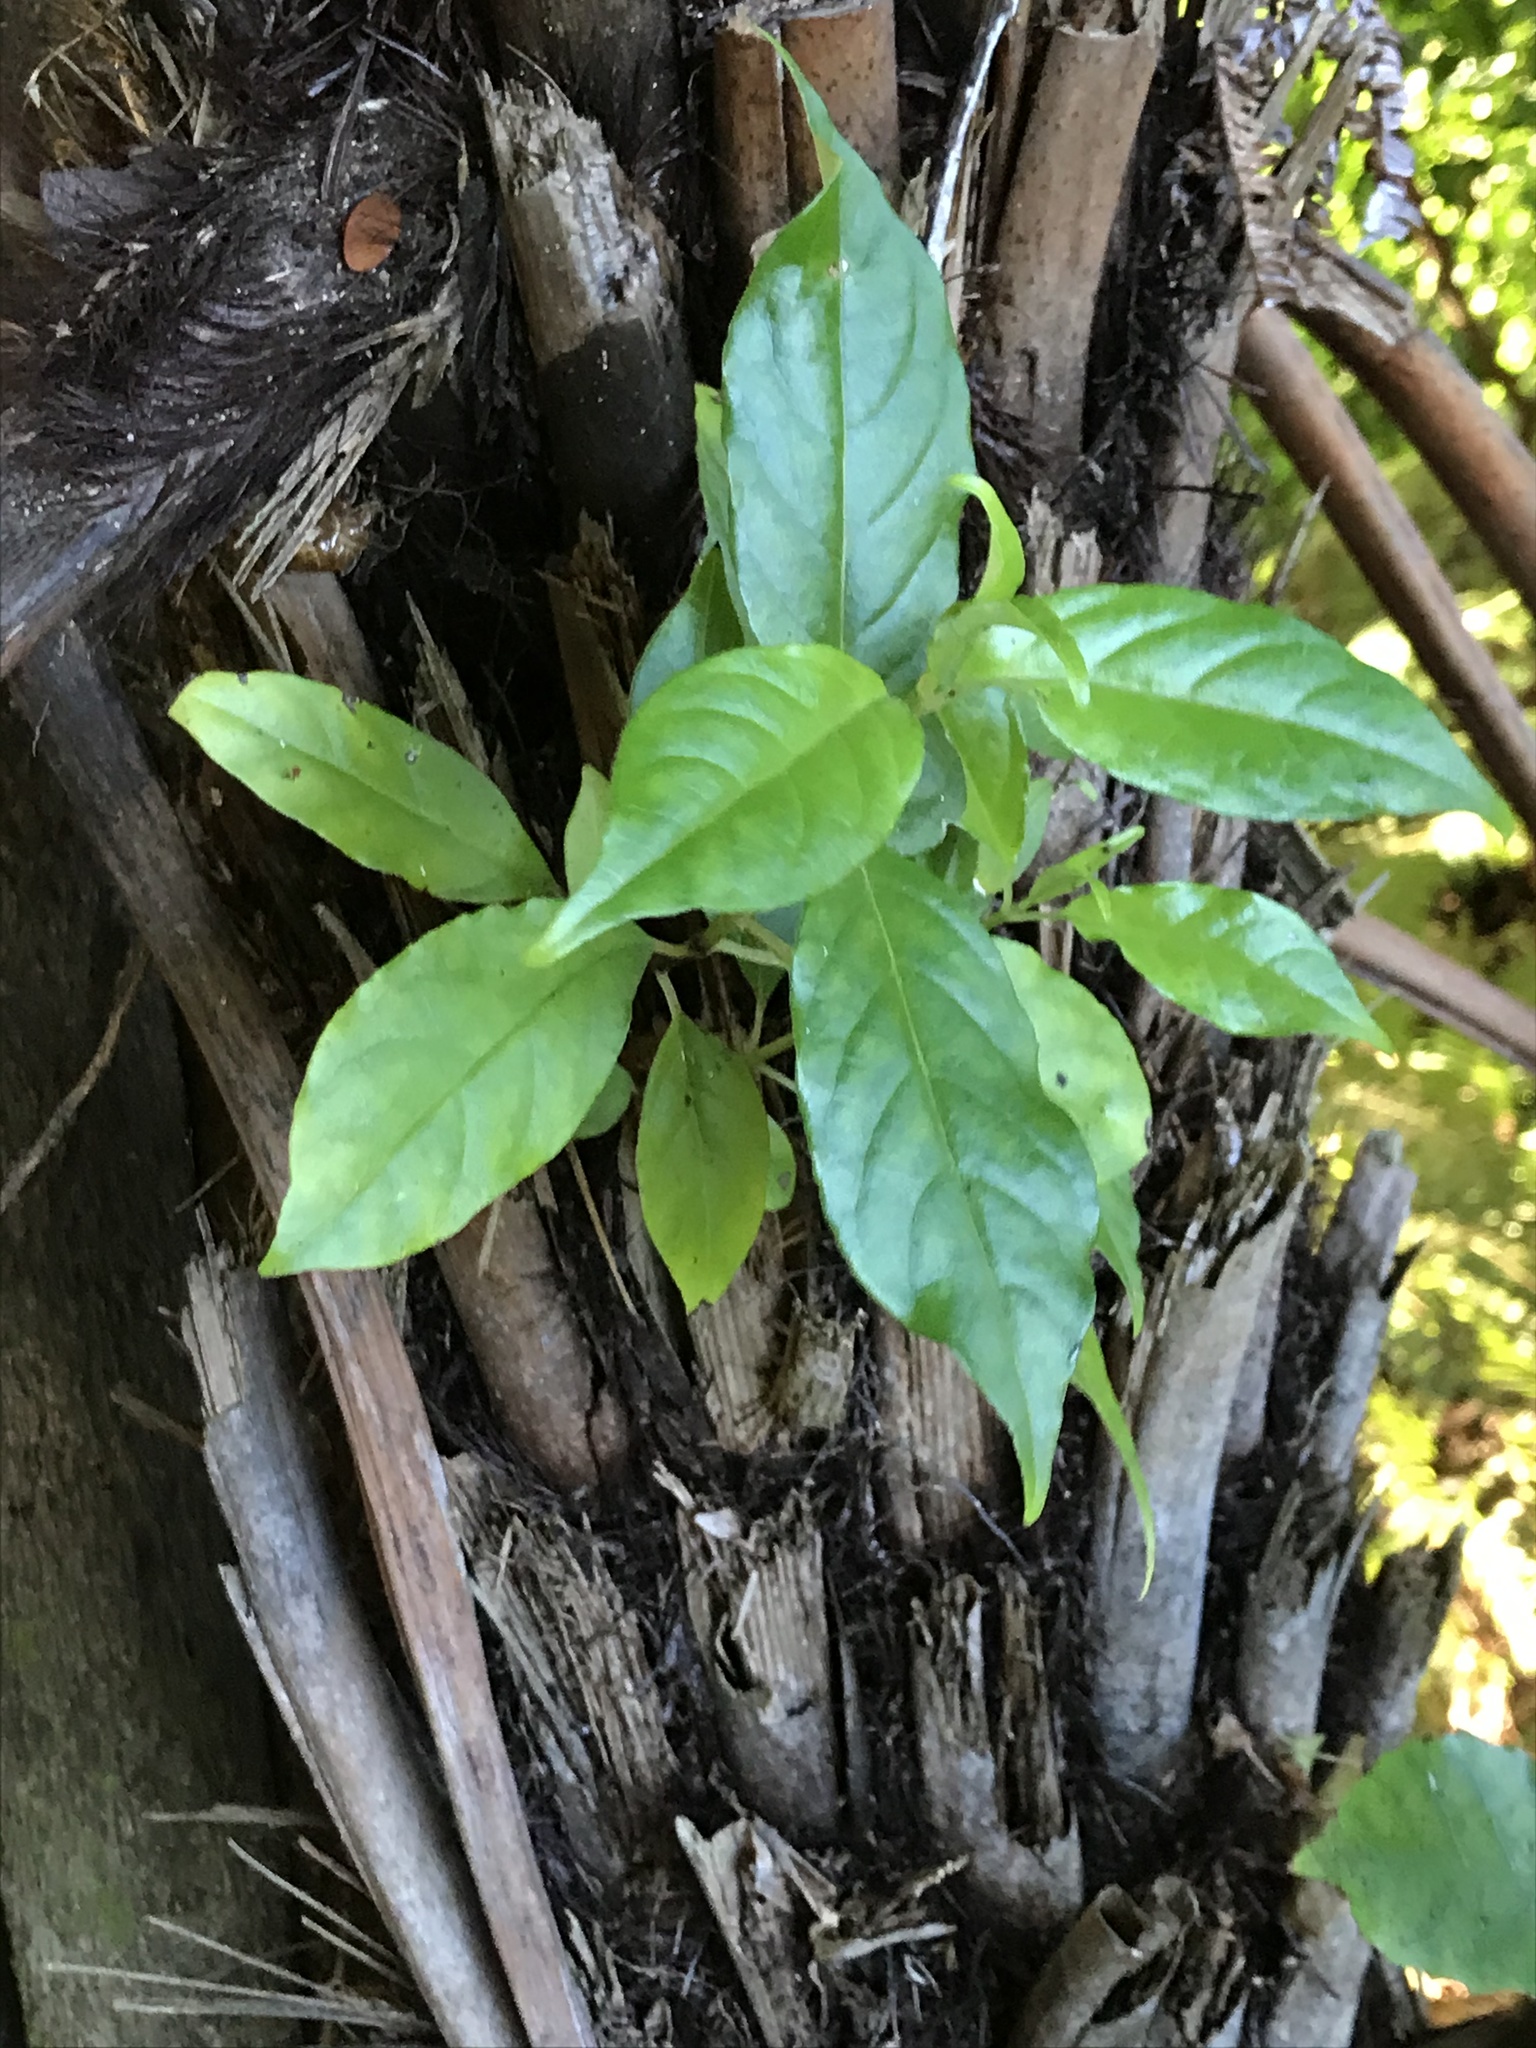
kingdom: Plantae
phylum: Tracheophyta
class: Magnoliopsida
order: Gentianales
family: Loganiaceae
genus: Geniostoma
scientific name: Geniostoma ligustrifolium
